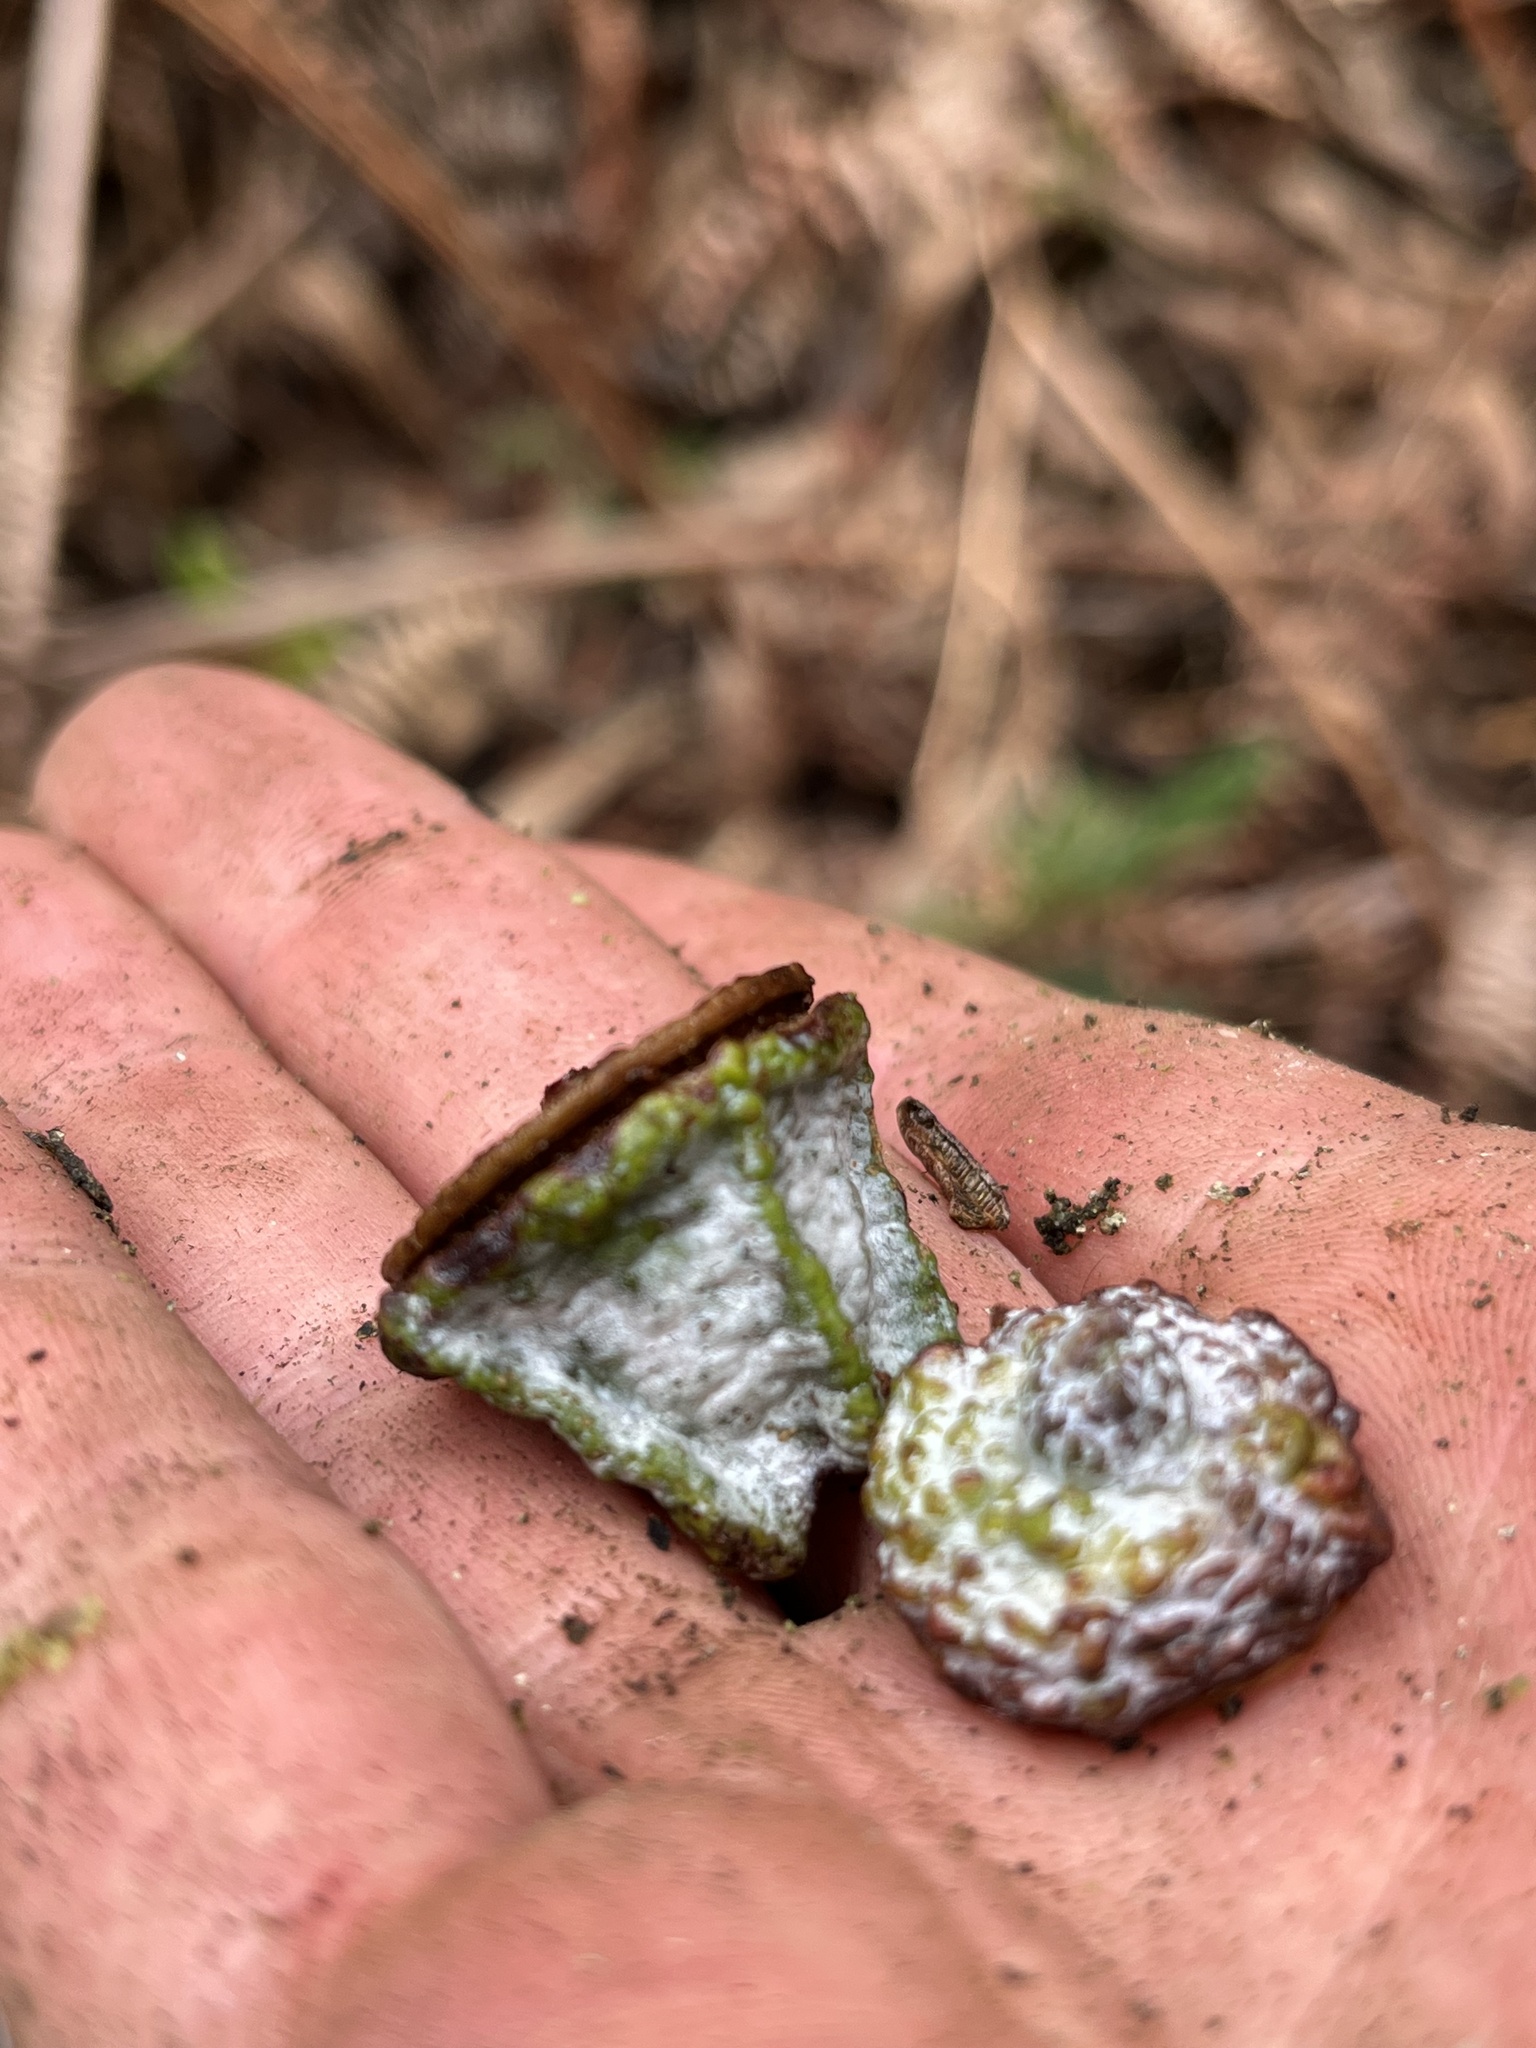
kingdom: Plantae
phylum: Tracheophyta
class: Magnoliopsida
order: Myrtales
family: Myrtaceae
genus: Eucalyptus
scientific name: Eucalyptus globulus
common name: Southern blue-gum
